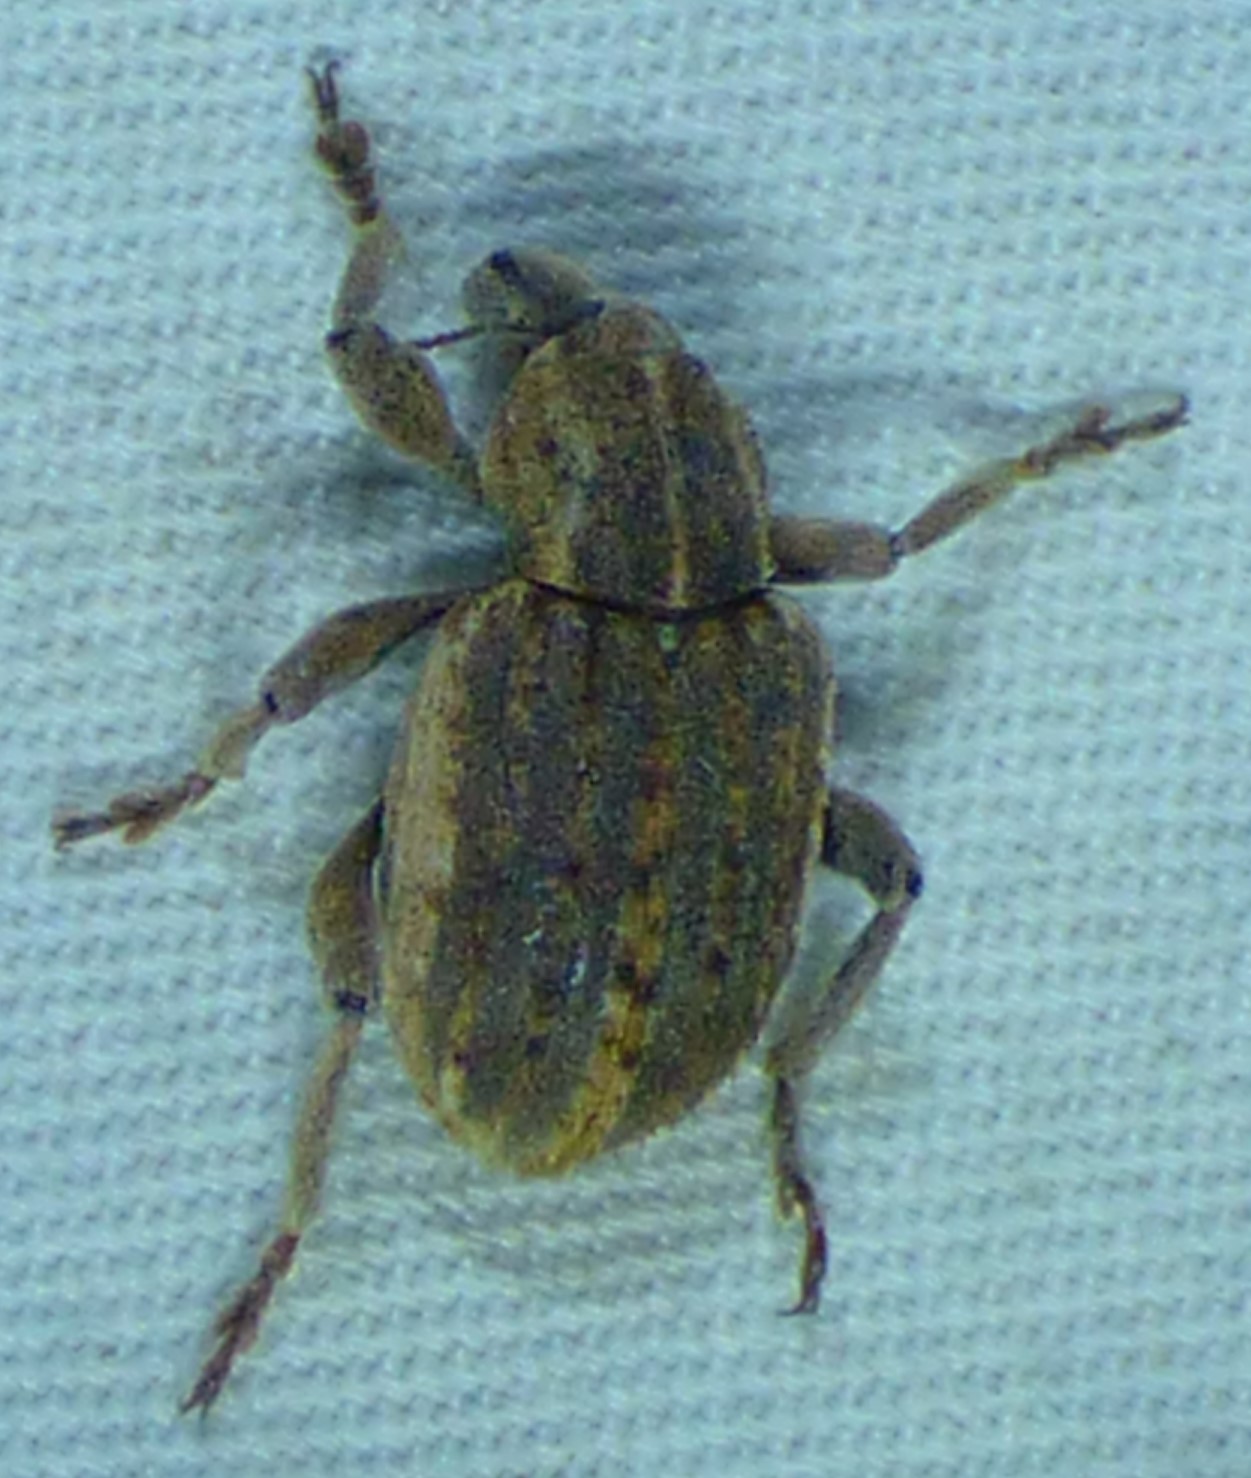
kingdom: Animalia
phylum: Arthropoda
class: Insecta
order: Coleoptera
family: Curculionidae
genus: Brachypera
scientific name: Brachypera zoilus
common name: Clover leaf weevil
